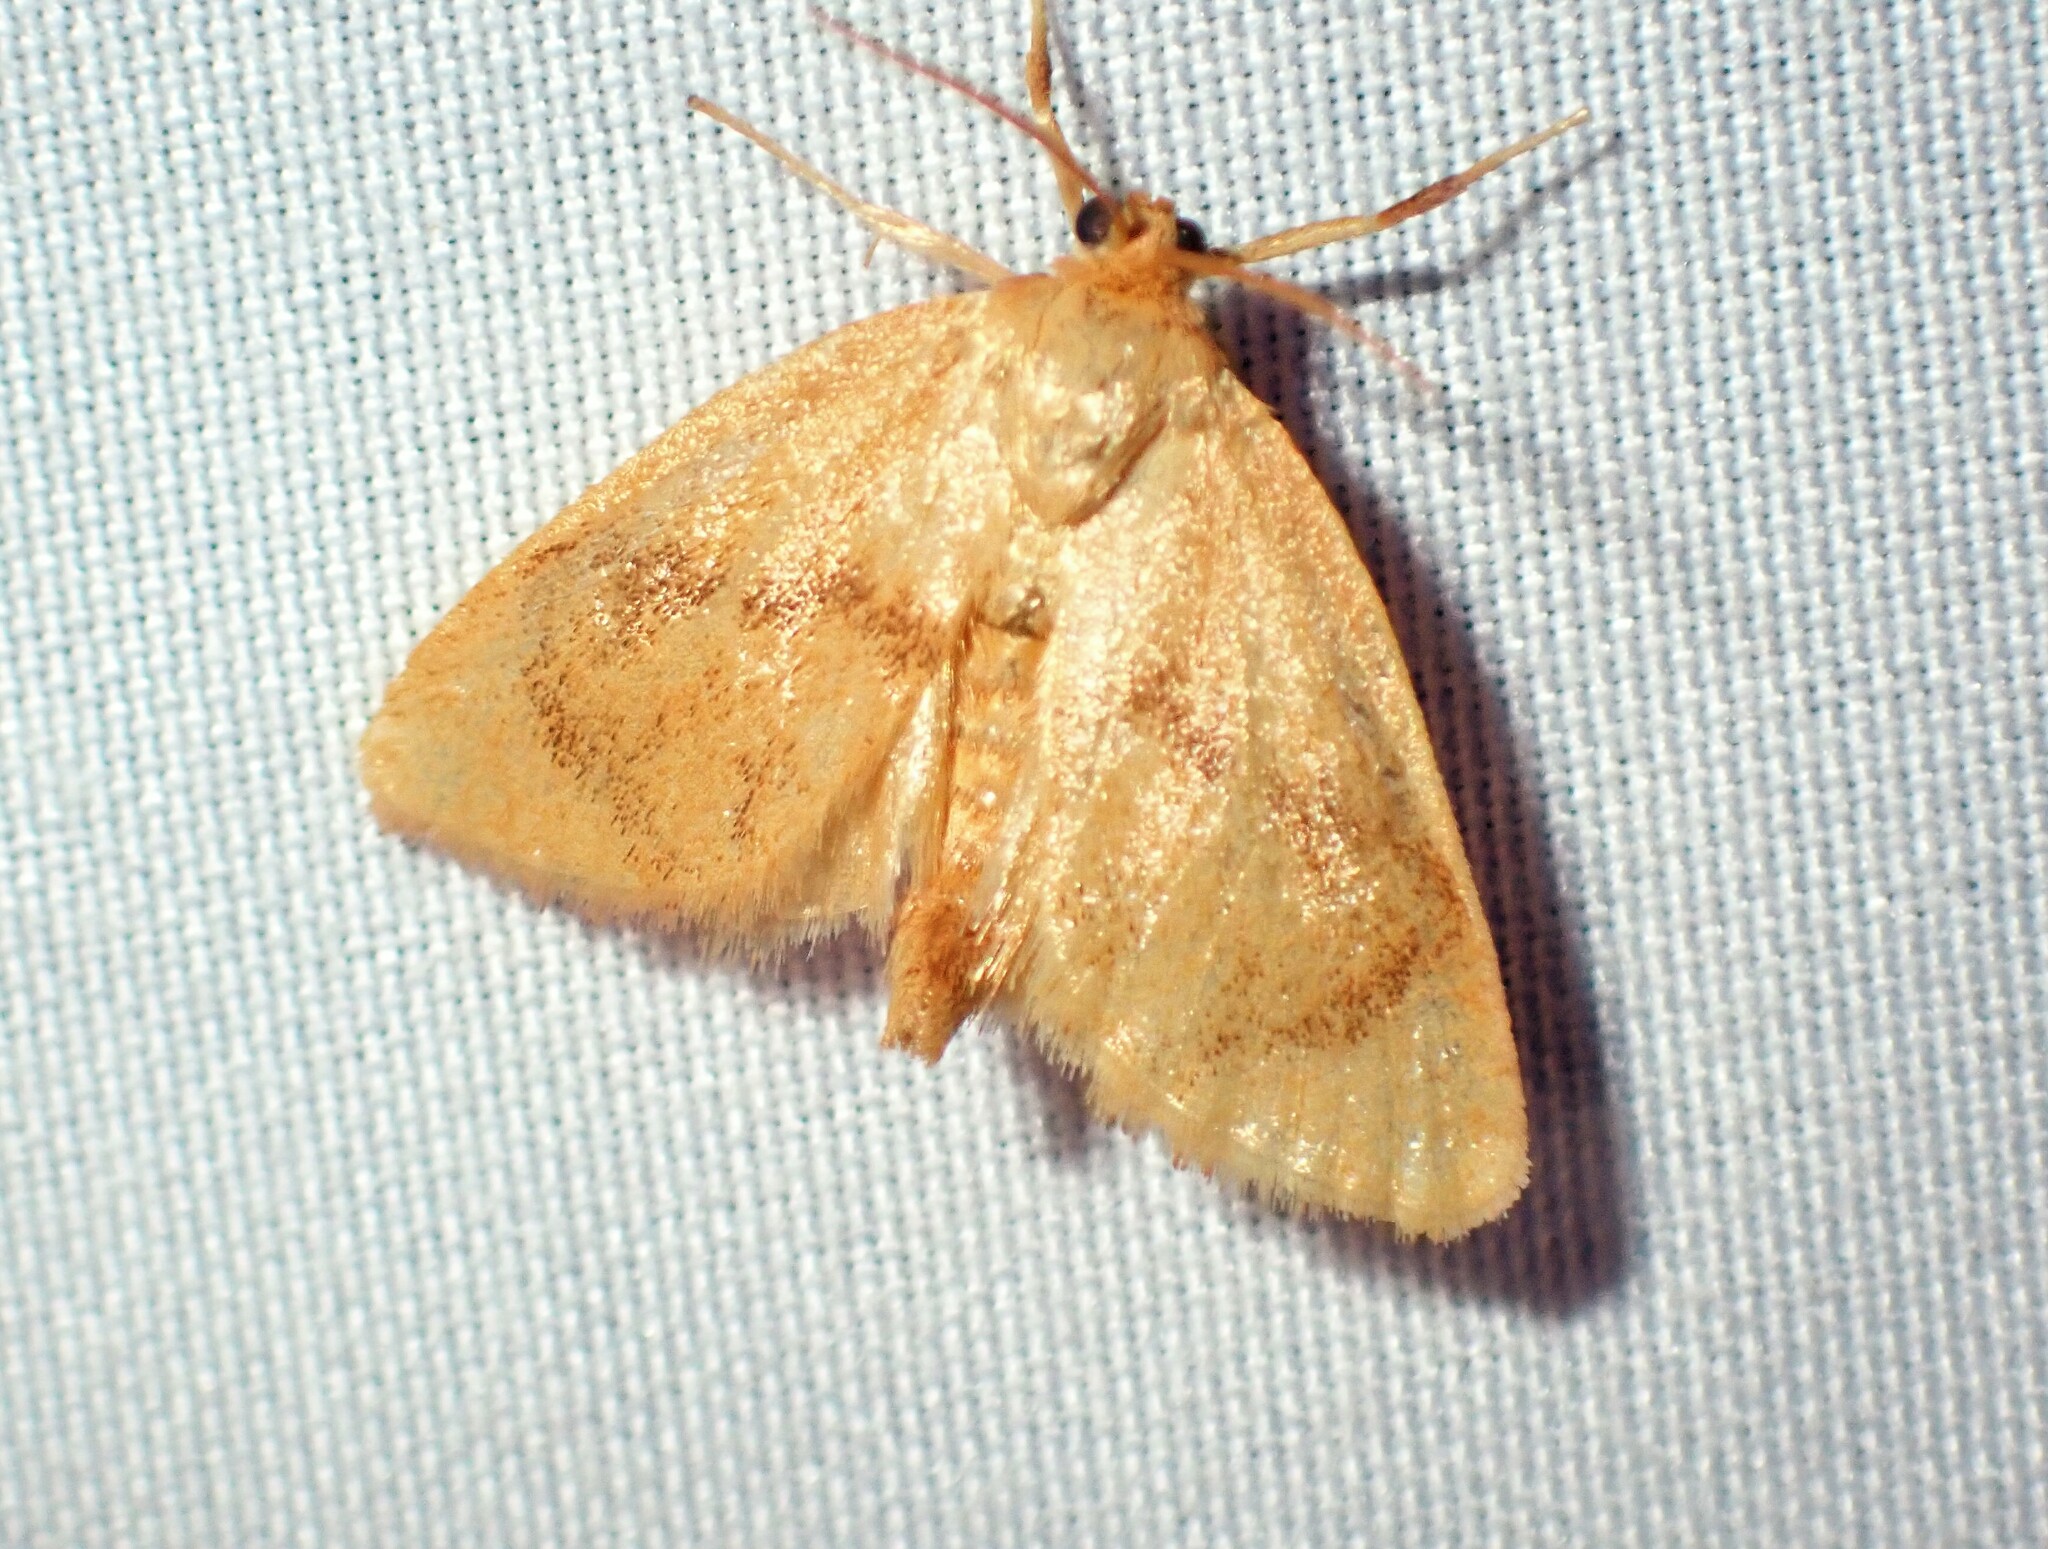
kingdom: Animalia
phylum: Arthropoda
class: Insecta
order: Lepidoptera
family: Limacodidae
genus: Tortricidia
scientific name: Tortricidia flexuosa
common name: Abbreviated button slug moth
